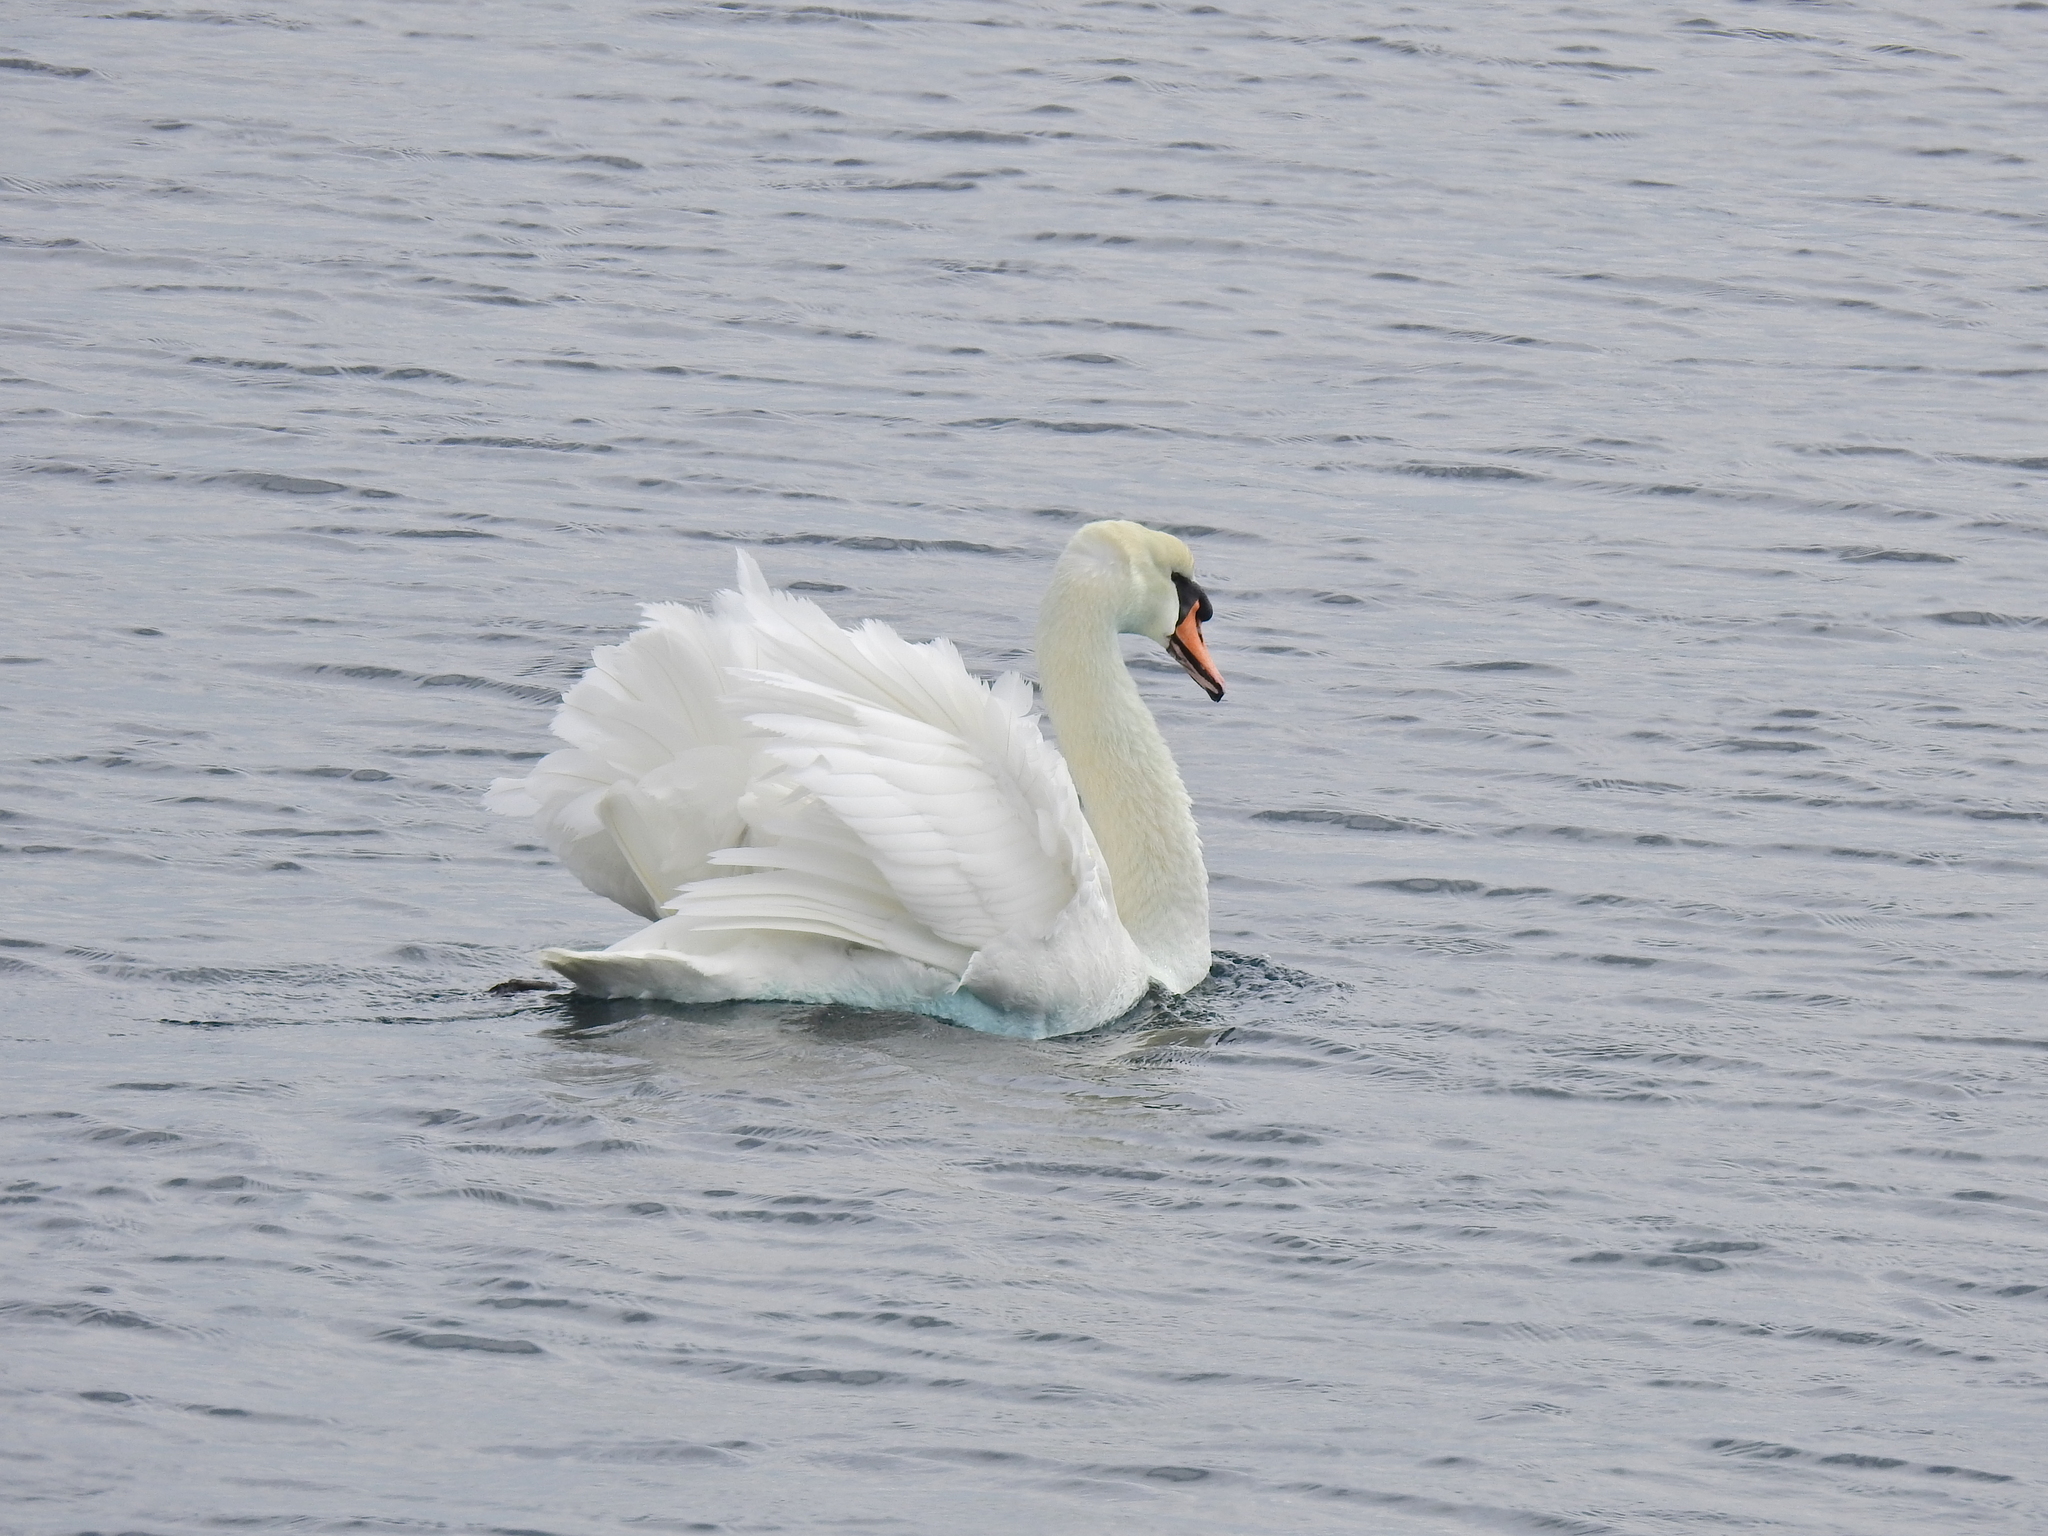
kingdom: Animalia
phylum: Chordata
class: Aves
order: Anseriformes
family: Anatidae
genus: Cygnus
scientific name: Cygnus olor
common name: Mute swan
